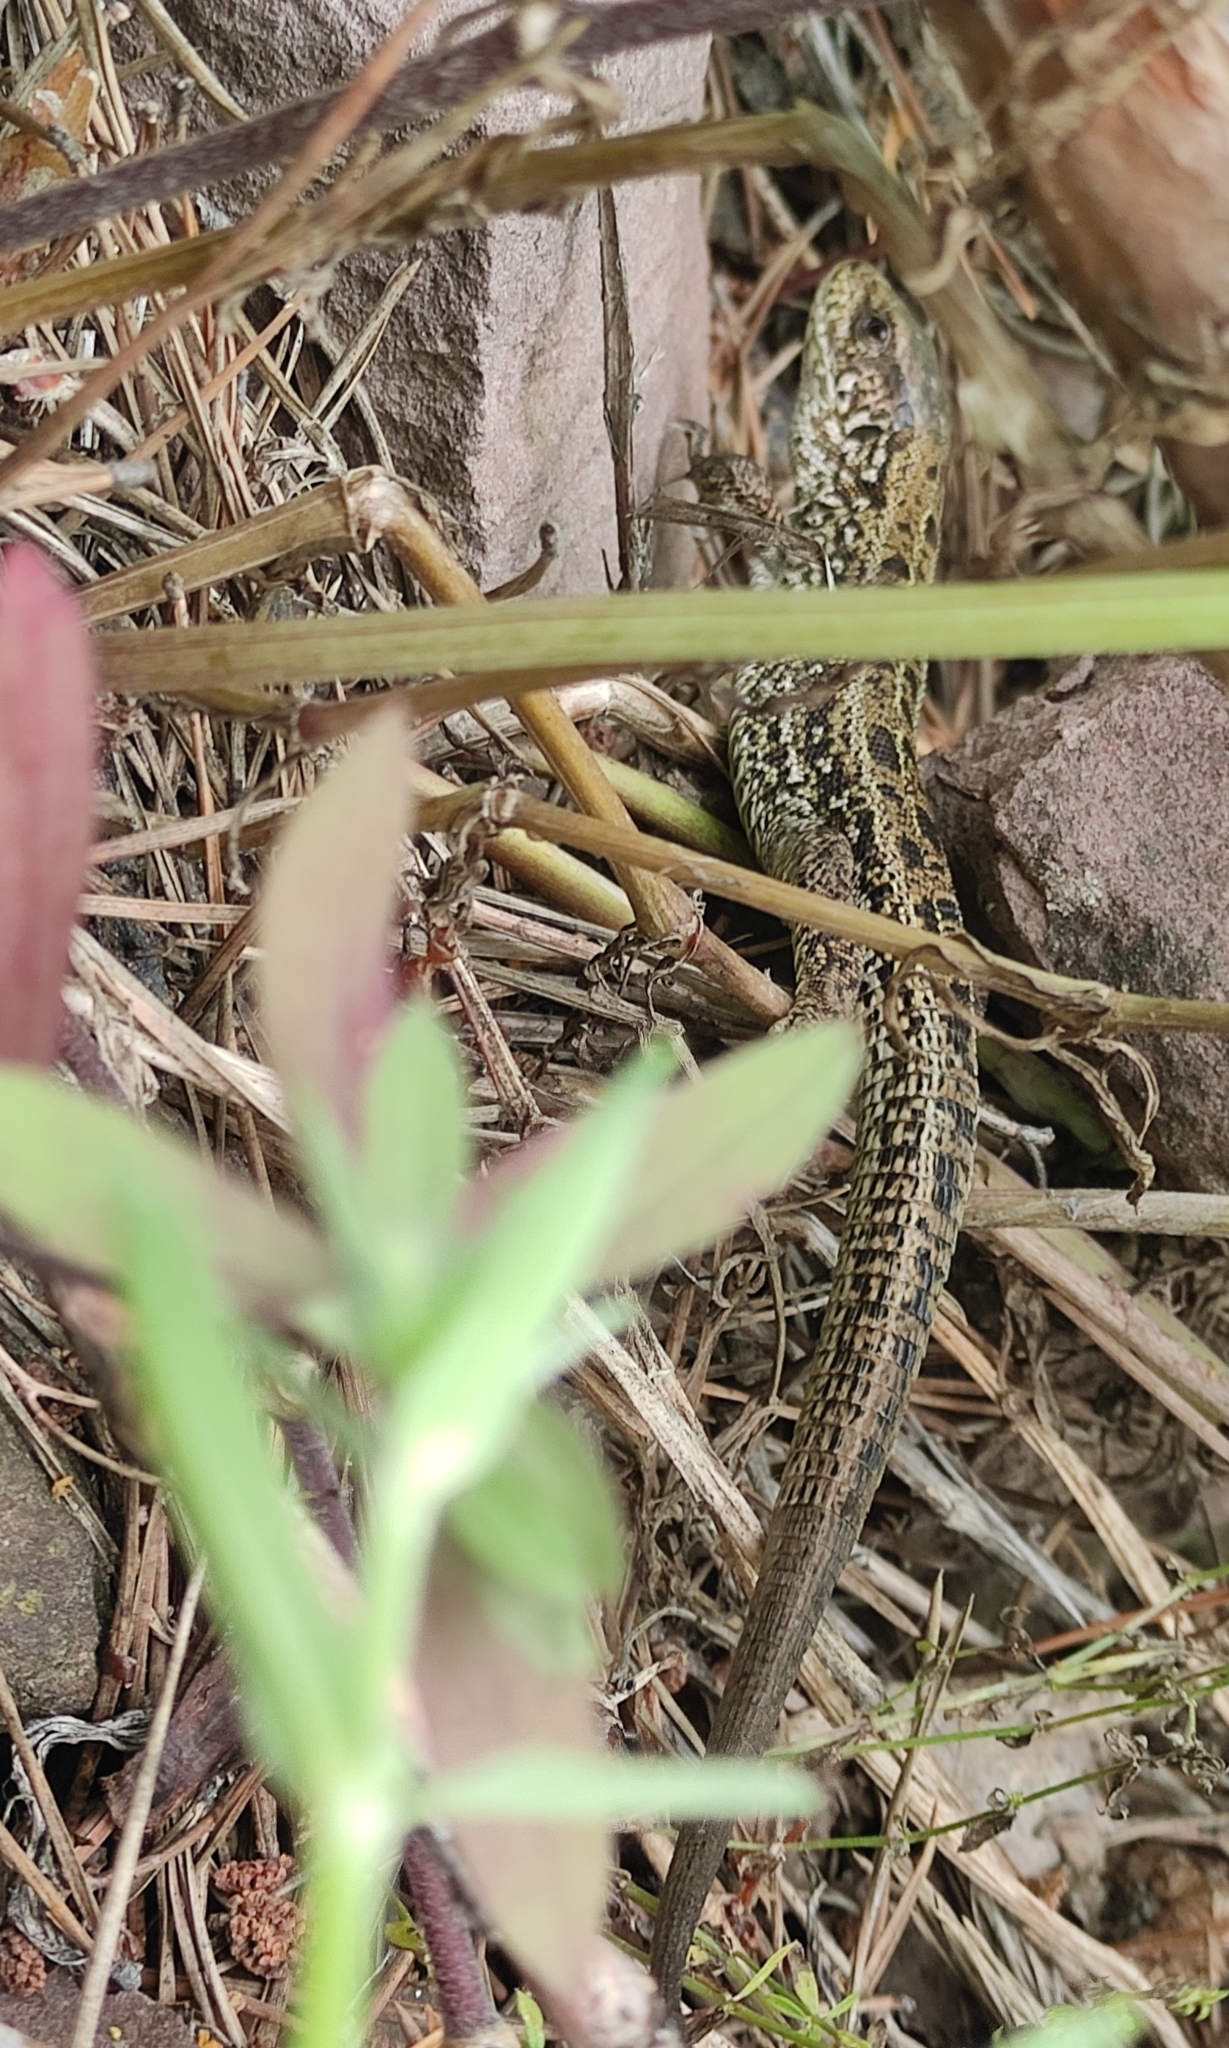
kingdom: Animalia
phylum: Chordata
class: Squamata
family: Lacertidae
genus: Lacerta
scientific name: Lacerta agilis
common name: Sand lizard
